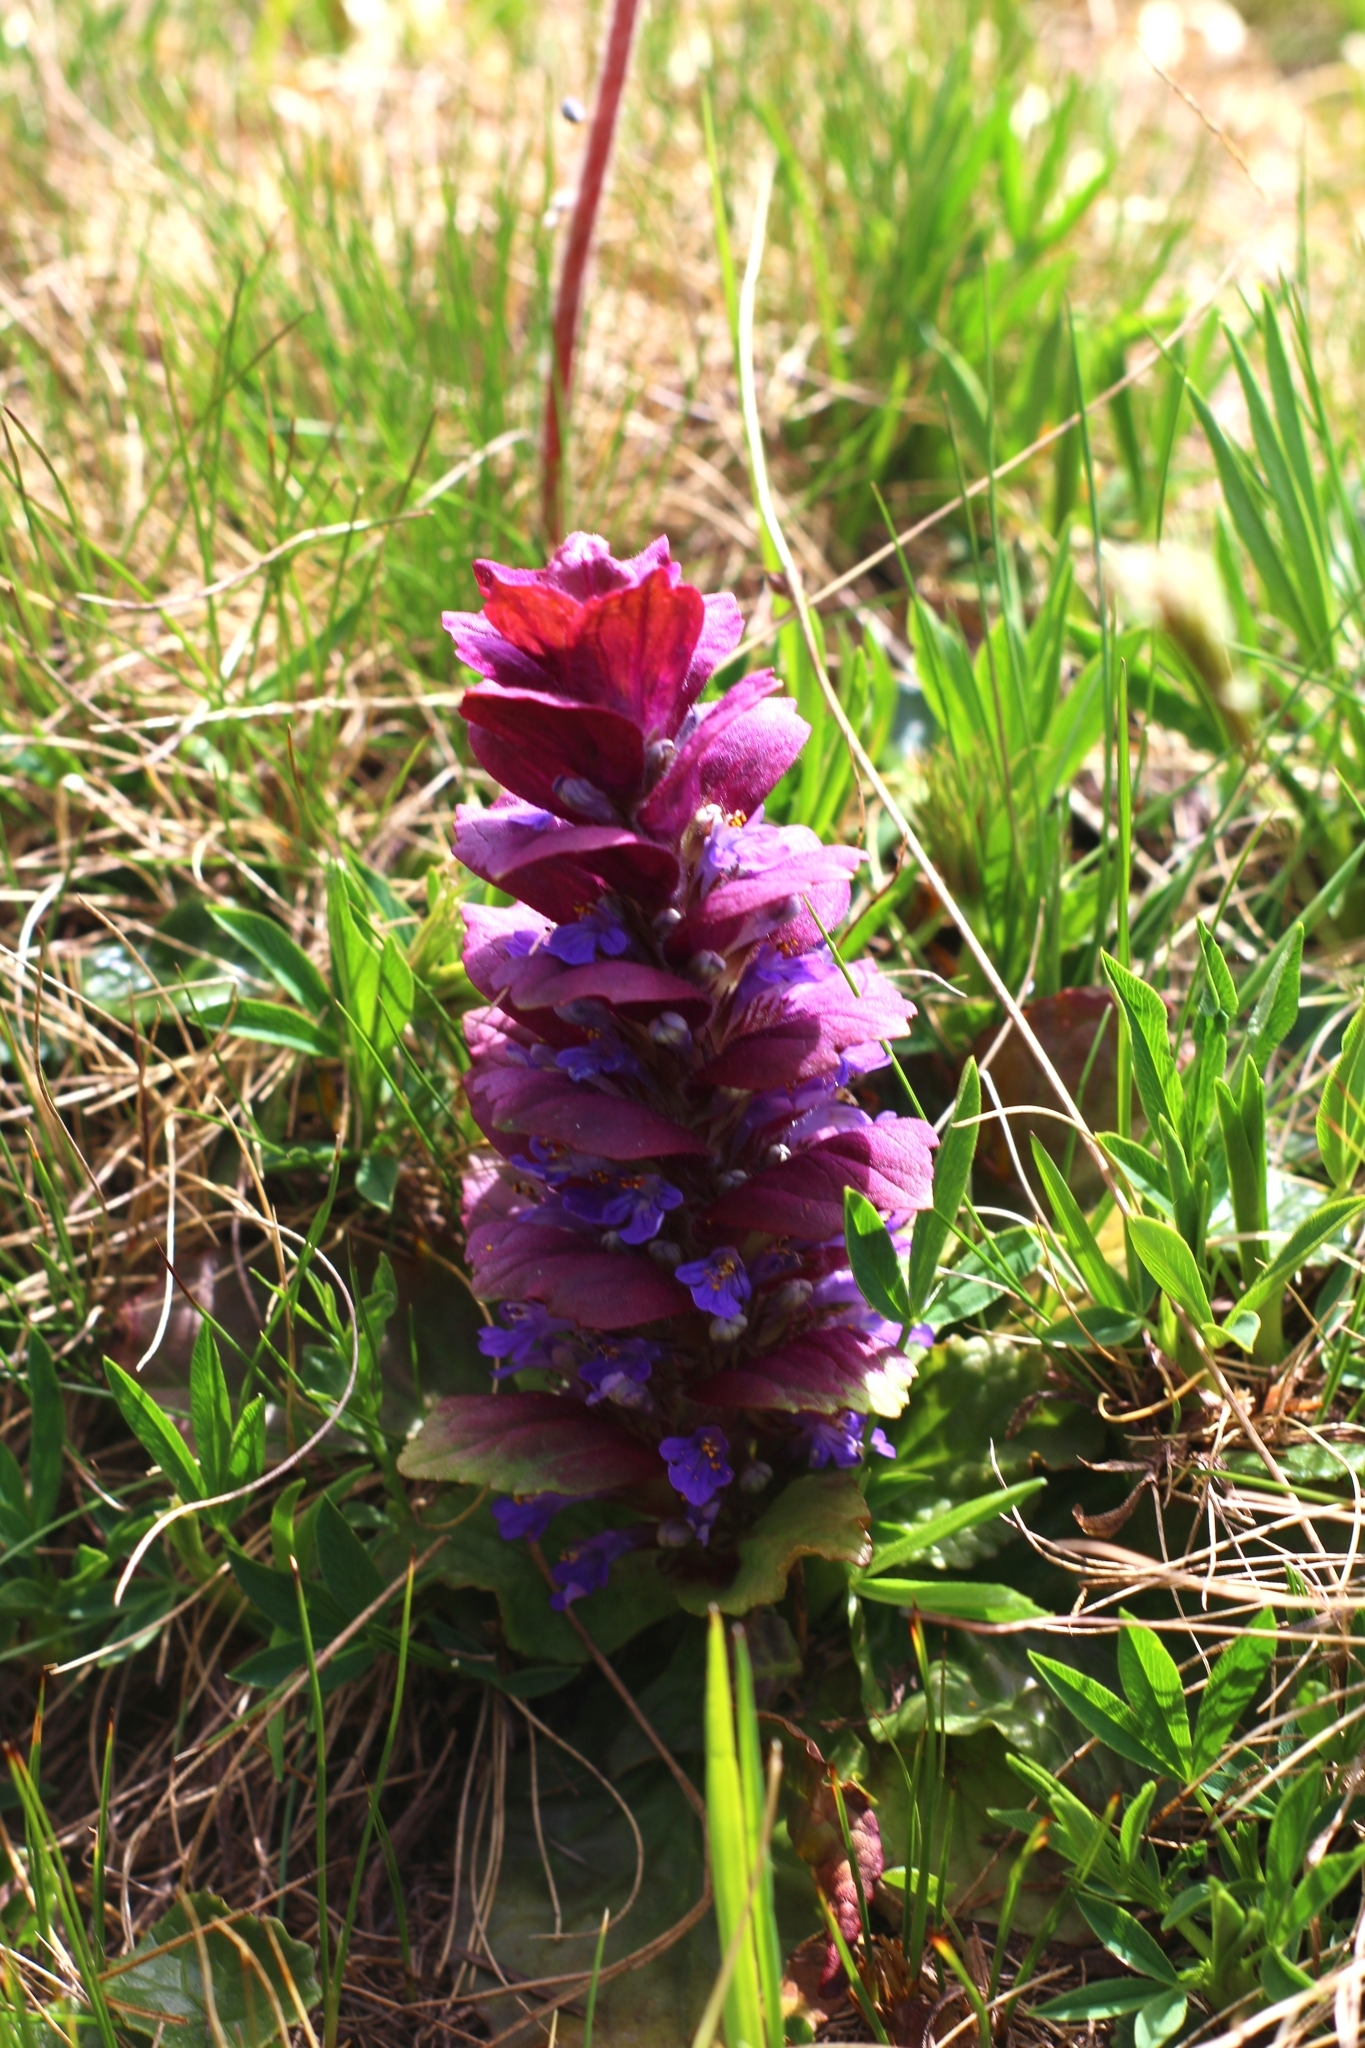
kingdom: Plantae
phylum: Tracheophyta
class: Magnoliopsida
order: Lamiales
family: Lamiaceae
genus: Ajuga
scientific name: Ajuga pyramidalis
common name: Pyramid bugle
